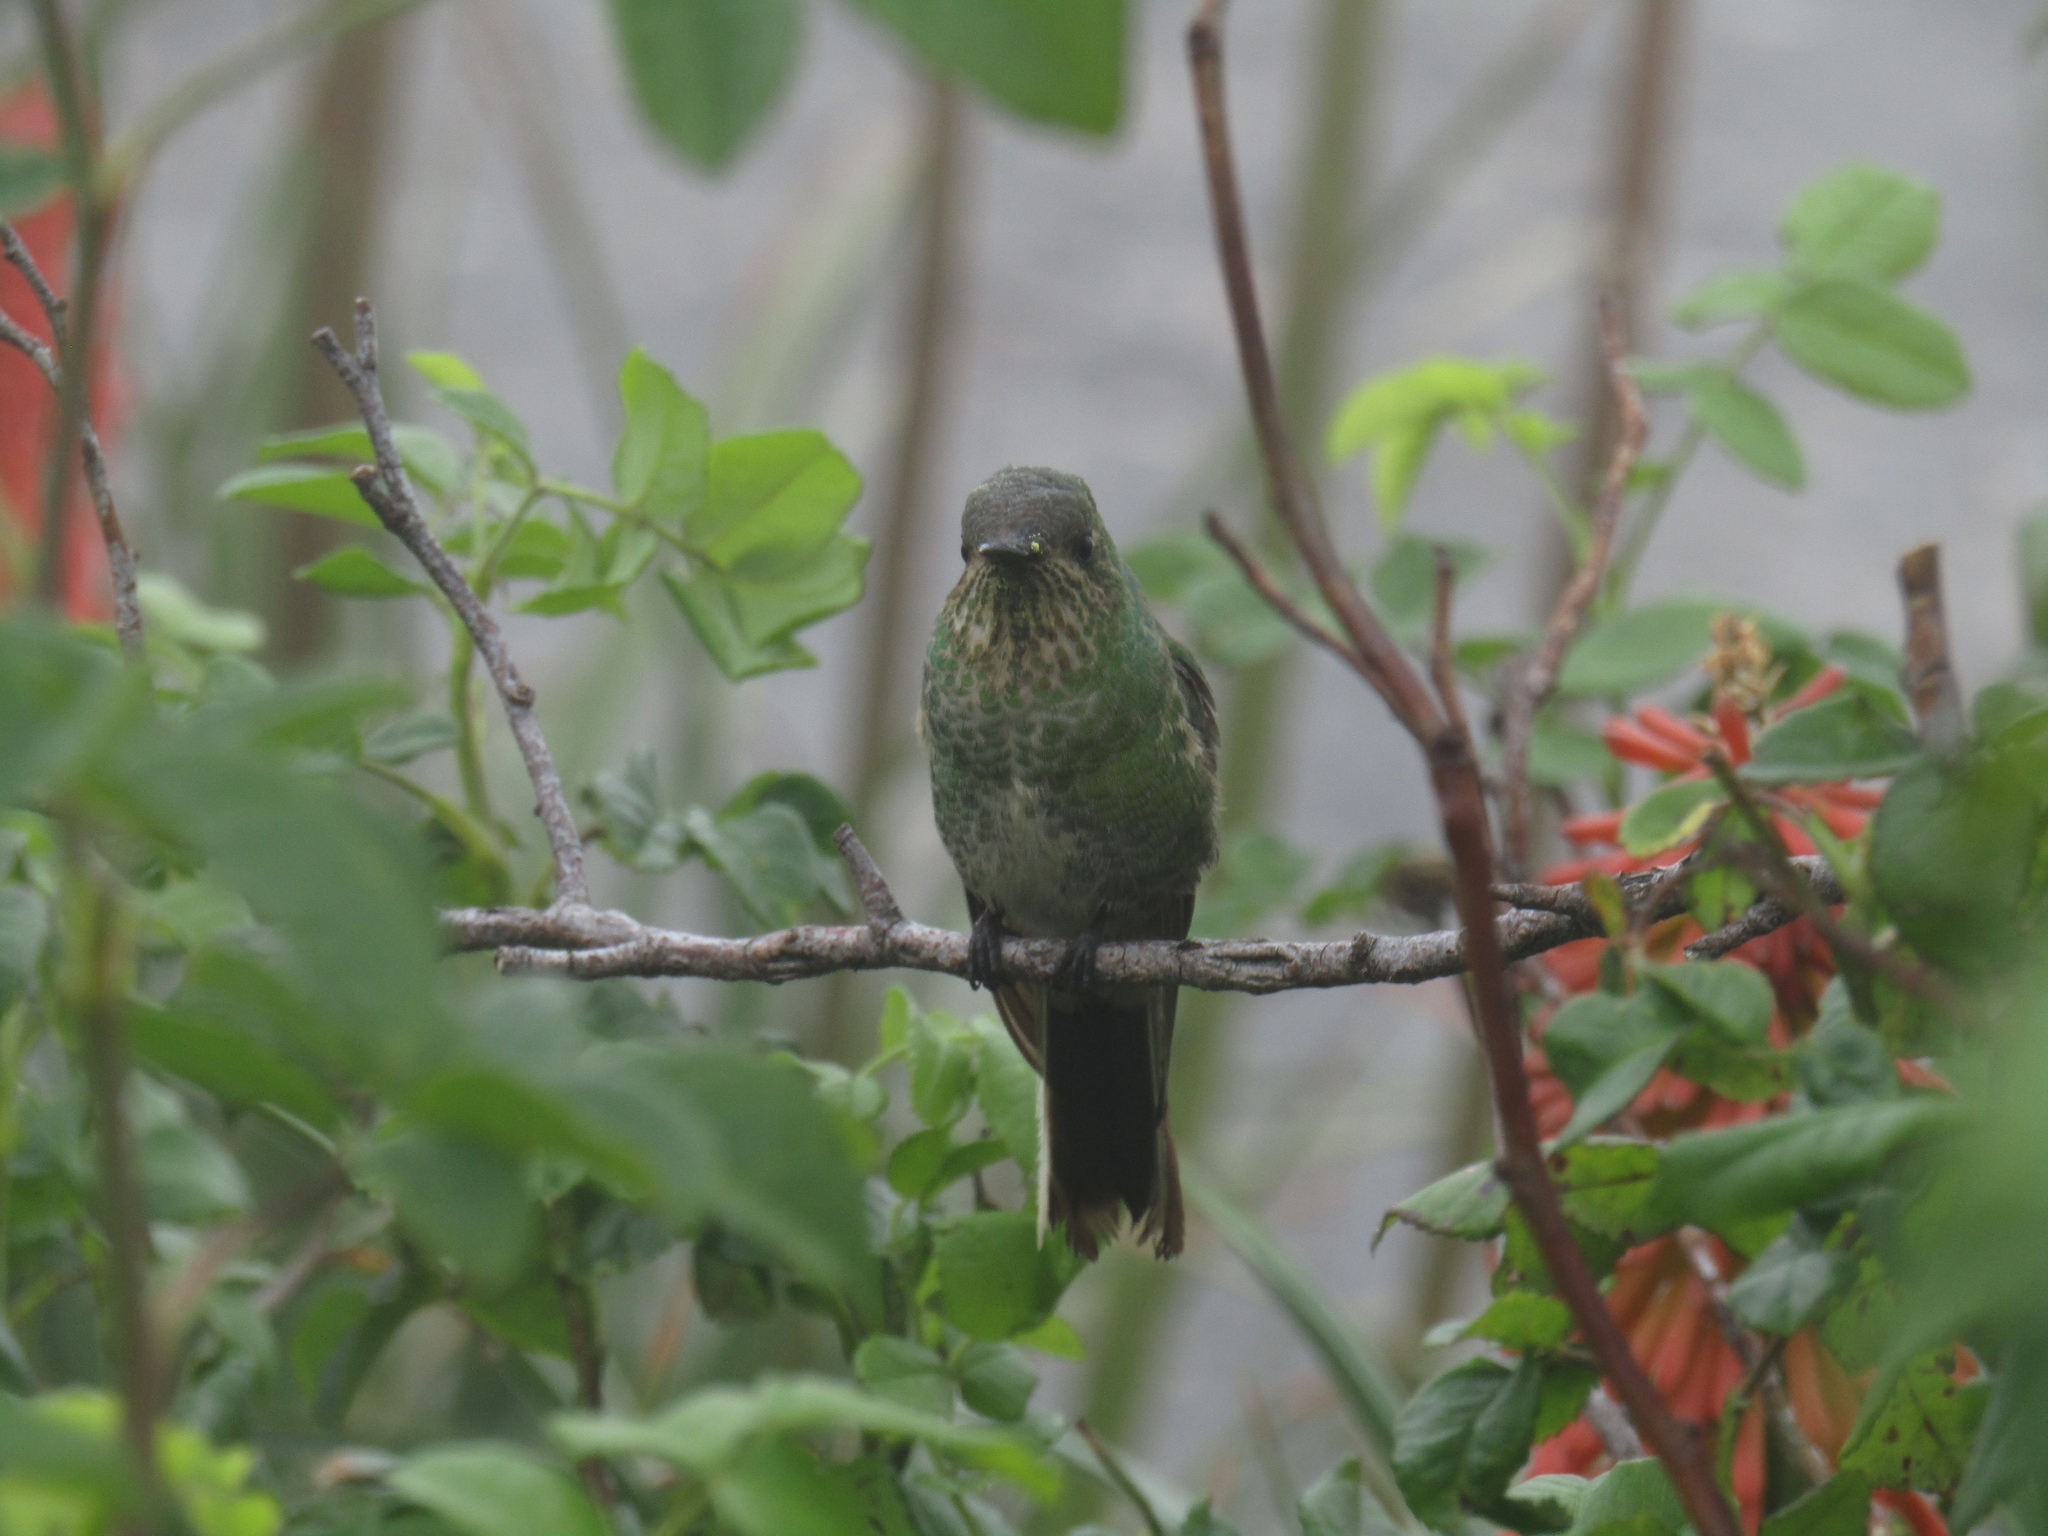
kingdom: Animalia
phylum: Chordata
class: Aves
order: Apodiformes
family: Trochilidae
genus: Sappho
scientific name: Sappho sparganurus
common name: Red-tailed comet
